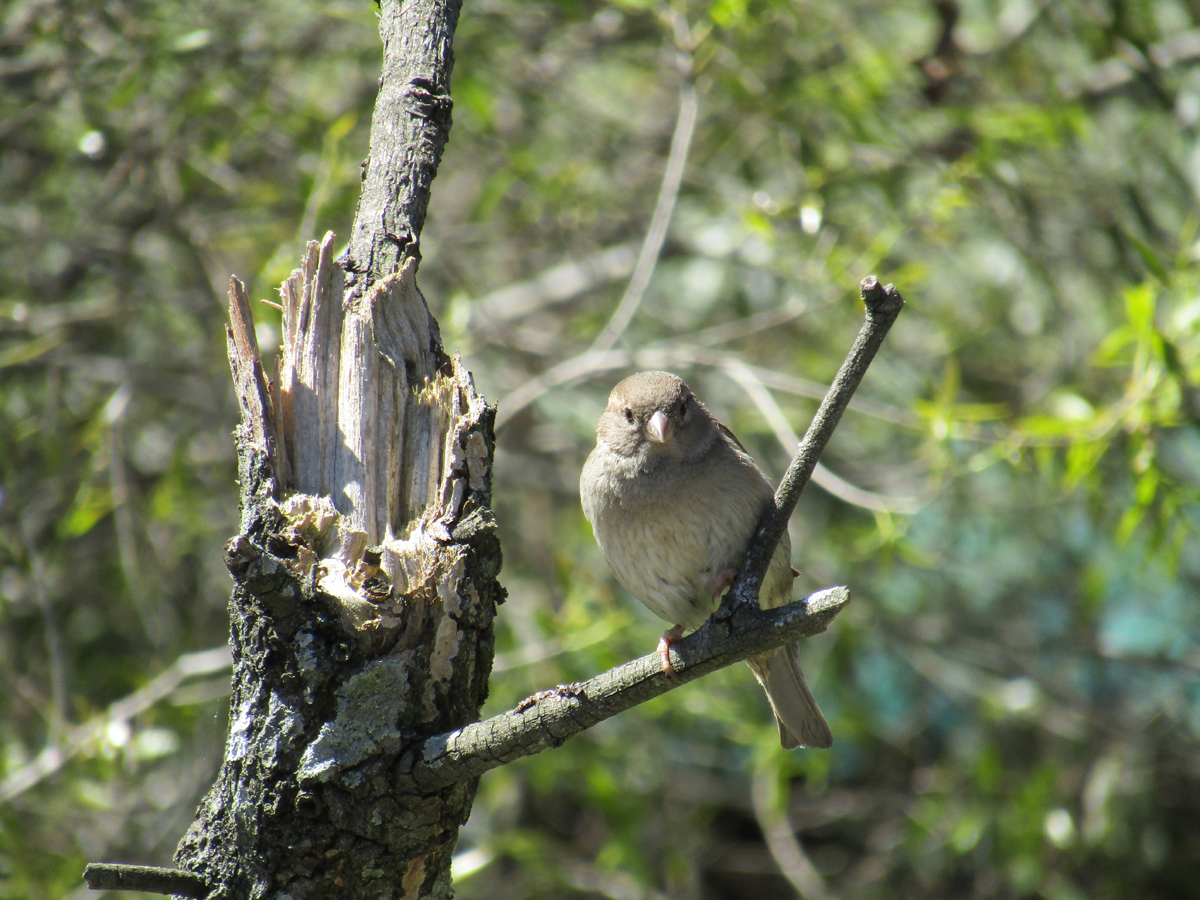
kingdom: Animalia
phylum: Chordata
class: Aves
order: Passeriformes
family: Passeridae
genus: Passer
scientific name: Passer domesticus
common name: House sparrow
